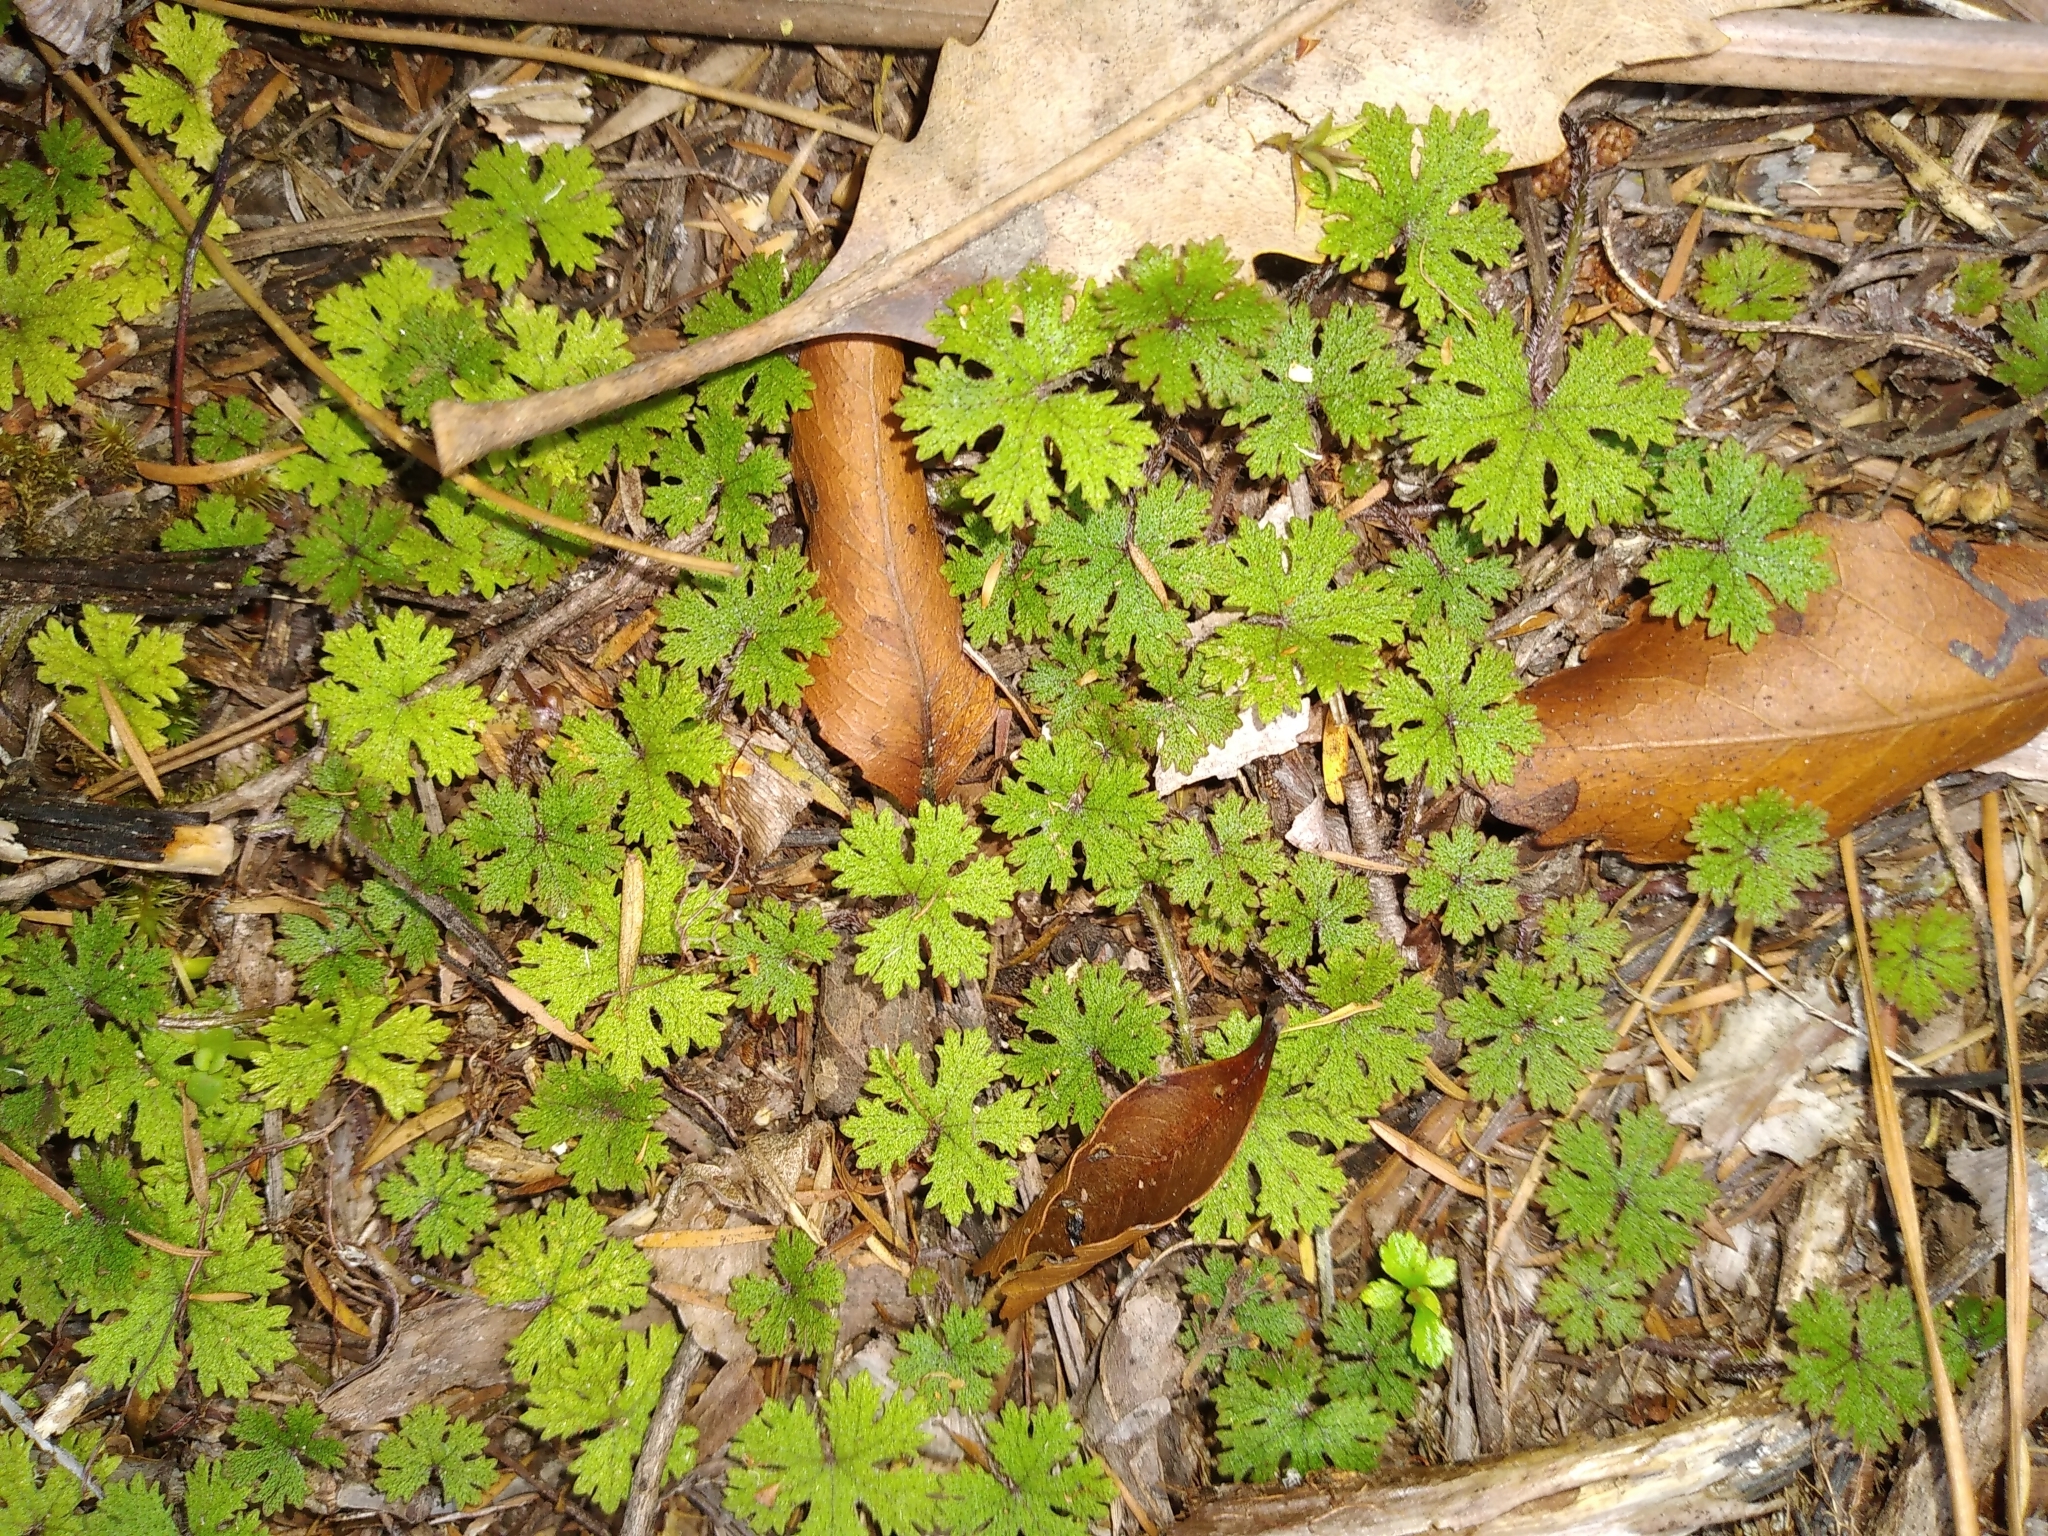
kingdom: Plantae
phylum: Tracheophyta
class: Magnoliopsida
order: Apiales
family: Araliaceae
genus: Hydrocotyle
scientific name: Hydrocotyle dissecta
